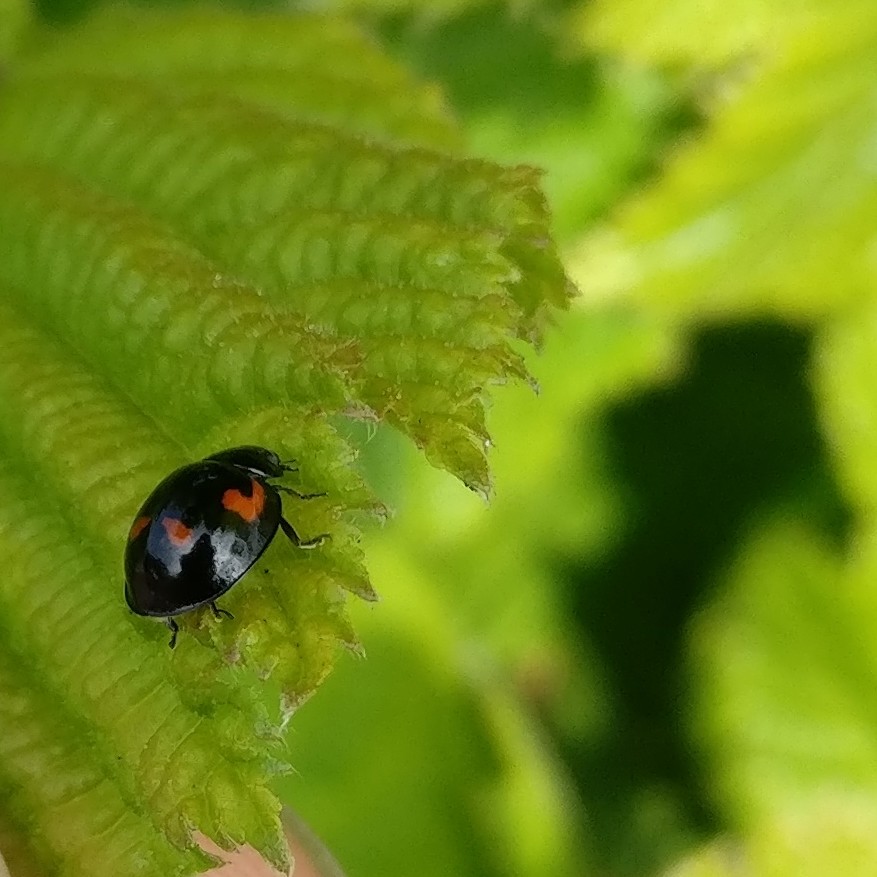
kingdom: Animalia
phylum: Arthropoda
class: Insecta
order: Coleoptera
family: Coccinellidae
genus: Brumus
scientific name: Brumus quadripustulatus
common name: Ladybird beetle
